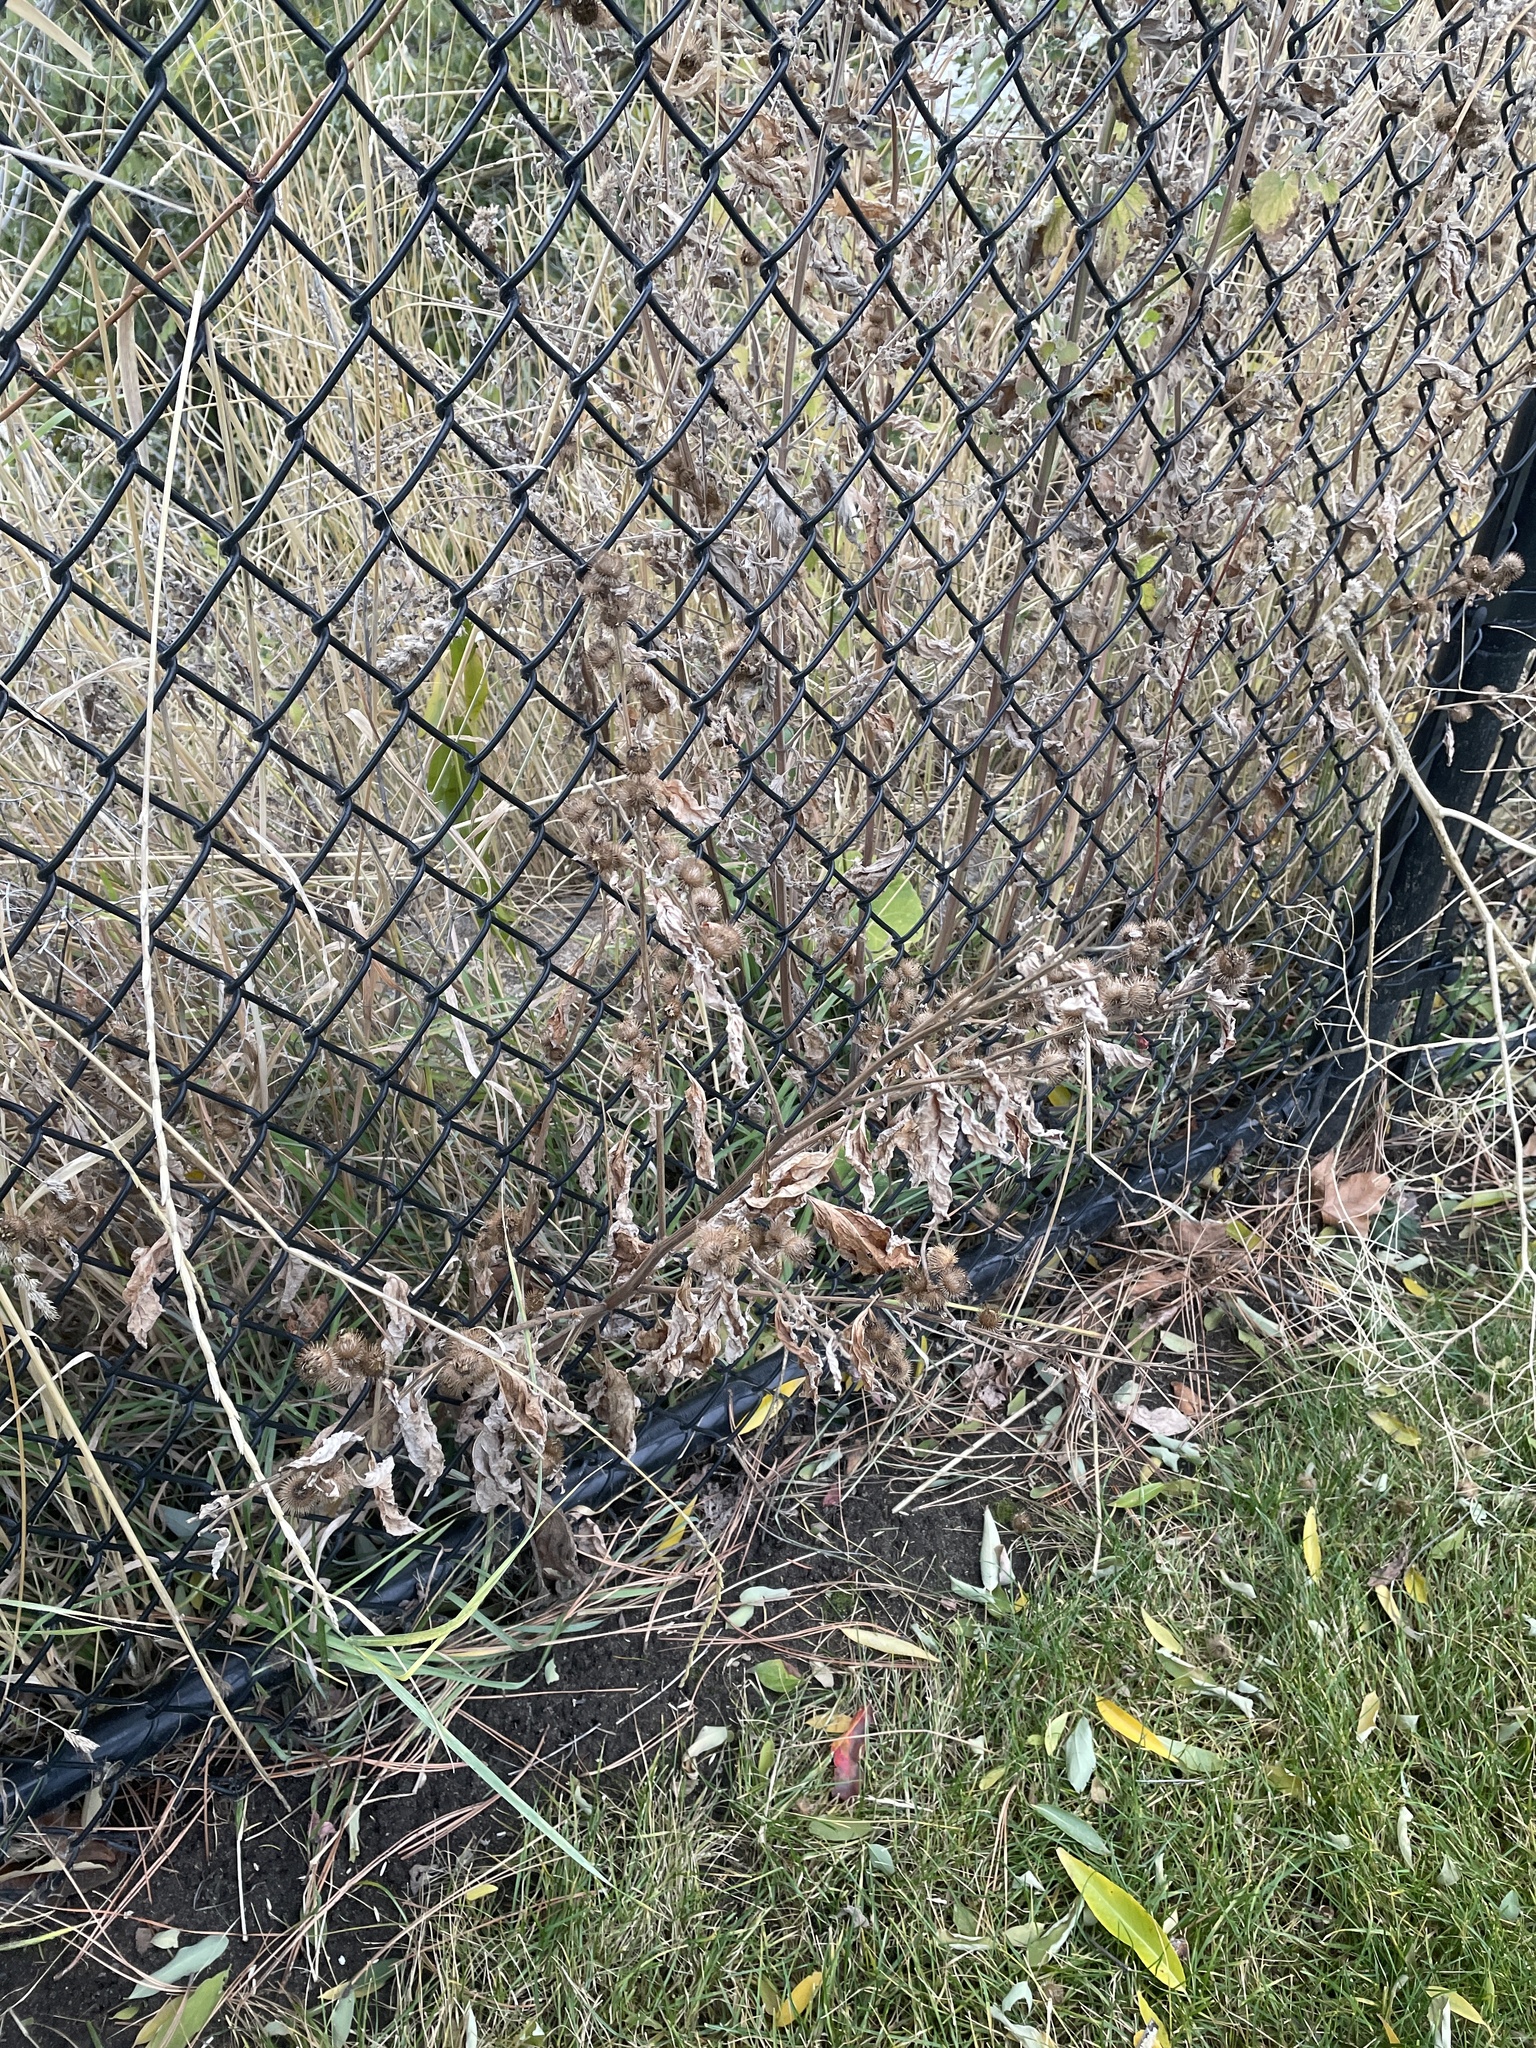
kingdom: Plantae
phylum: Tracheophyta
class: Magnoliopsida
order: Asterales
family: Asteraceae
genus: Arctium
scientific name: Arctium minus
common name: Lesser burdock
